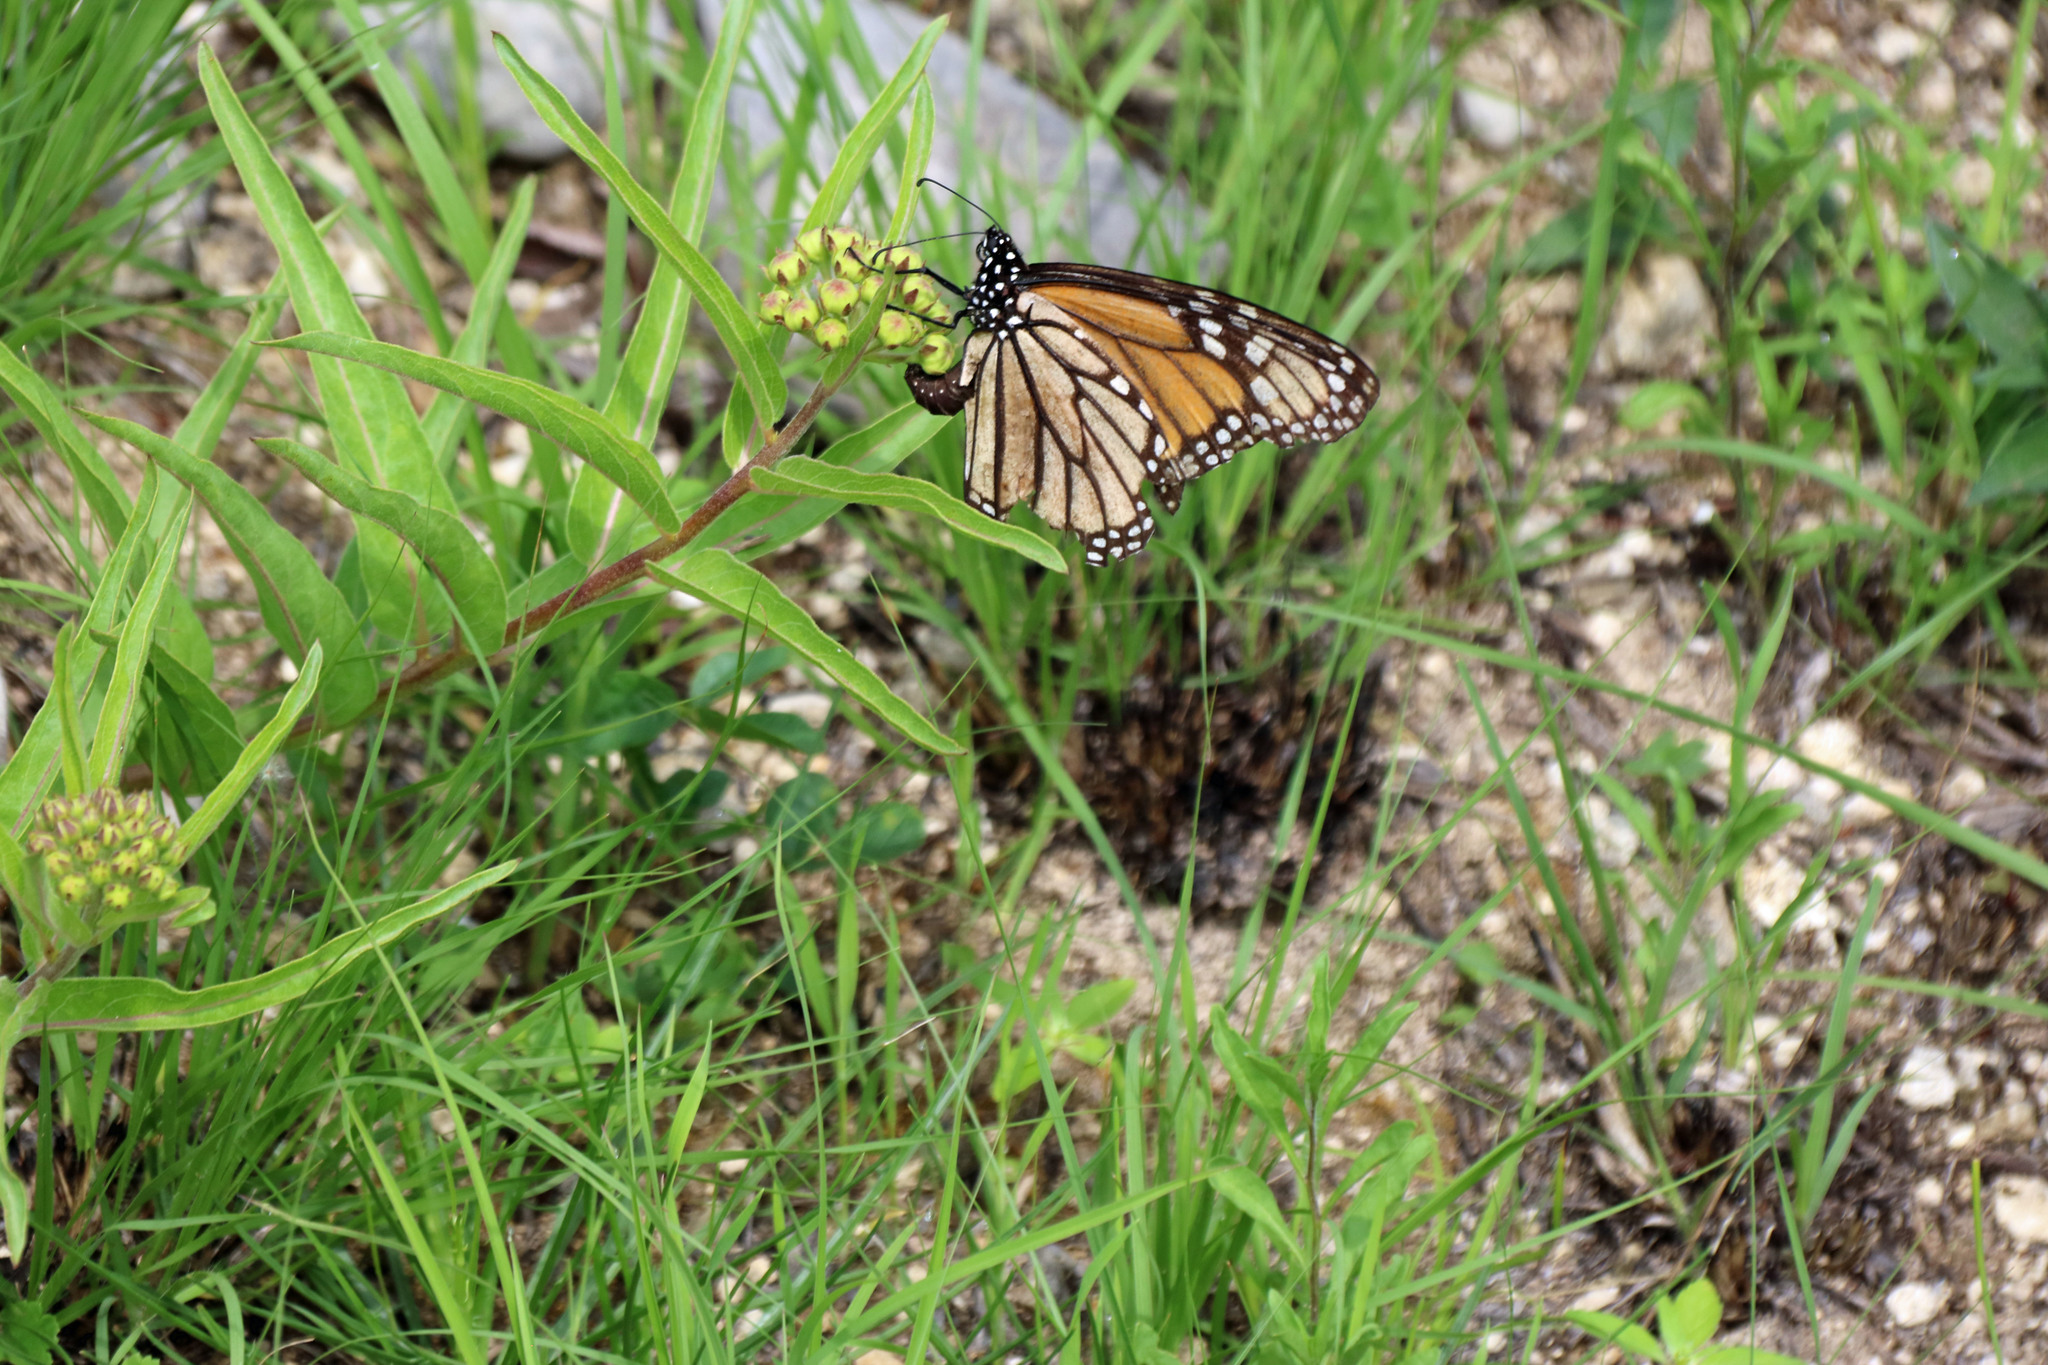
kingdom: Animalia
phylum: Arthropoda
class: Insecta
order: Lepidoptera
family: Nymphalidae
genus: Danaus
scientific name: Danaus plexippus
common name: Monarch
